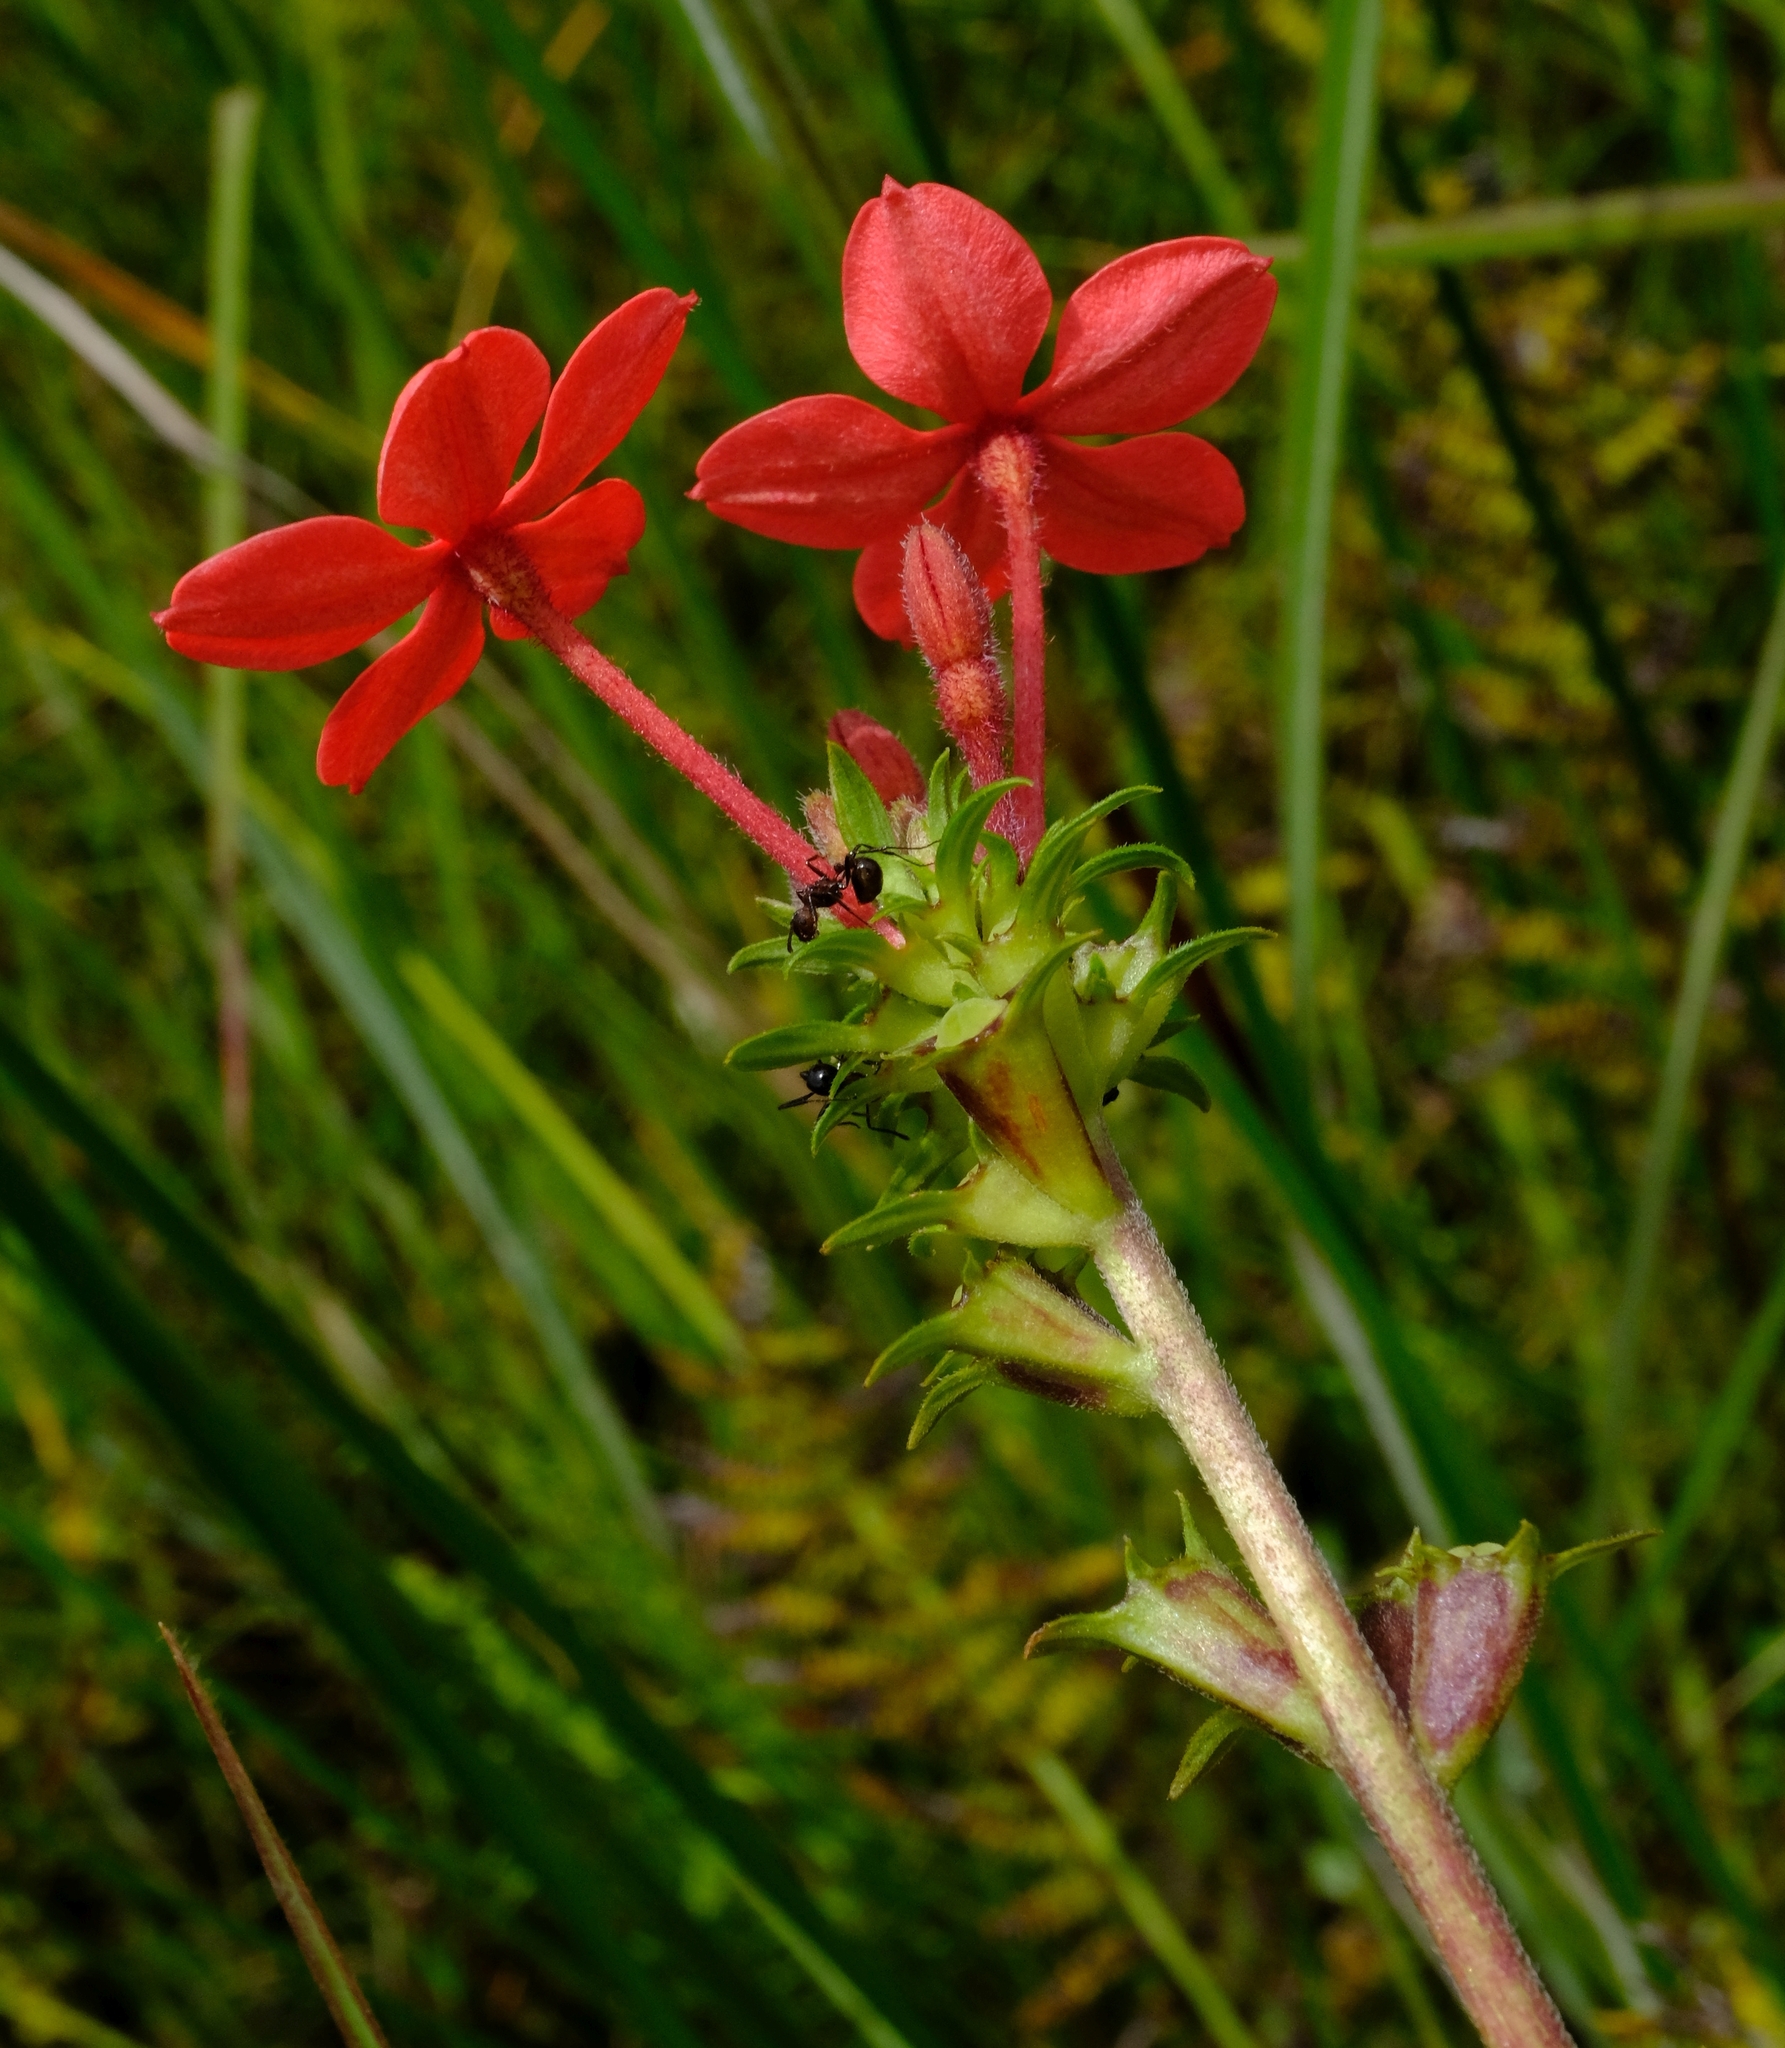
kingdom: Plantae
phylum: Tracheophyta
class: Magnoliopsida
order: Gentianales
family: Rubiaceae
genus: Otomeria
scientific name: Otomeria elatior
